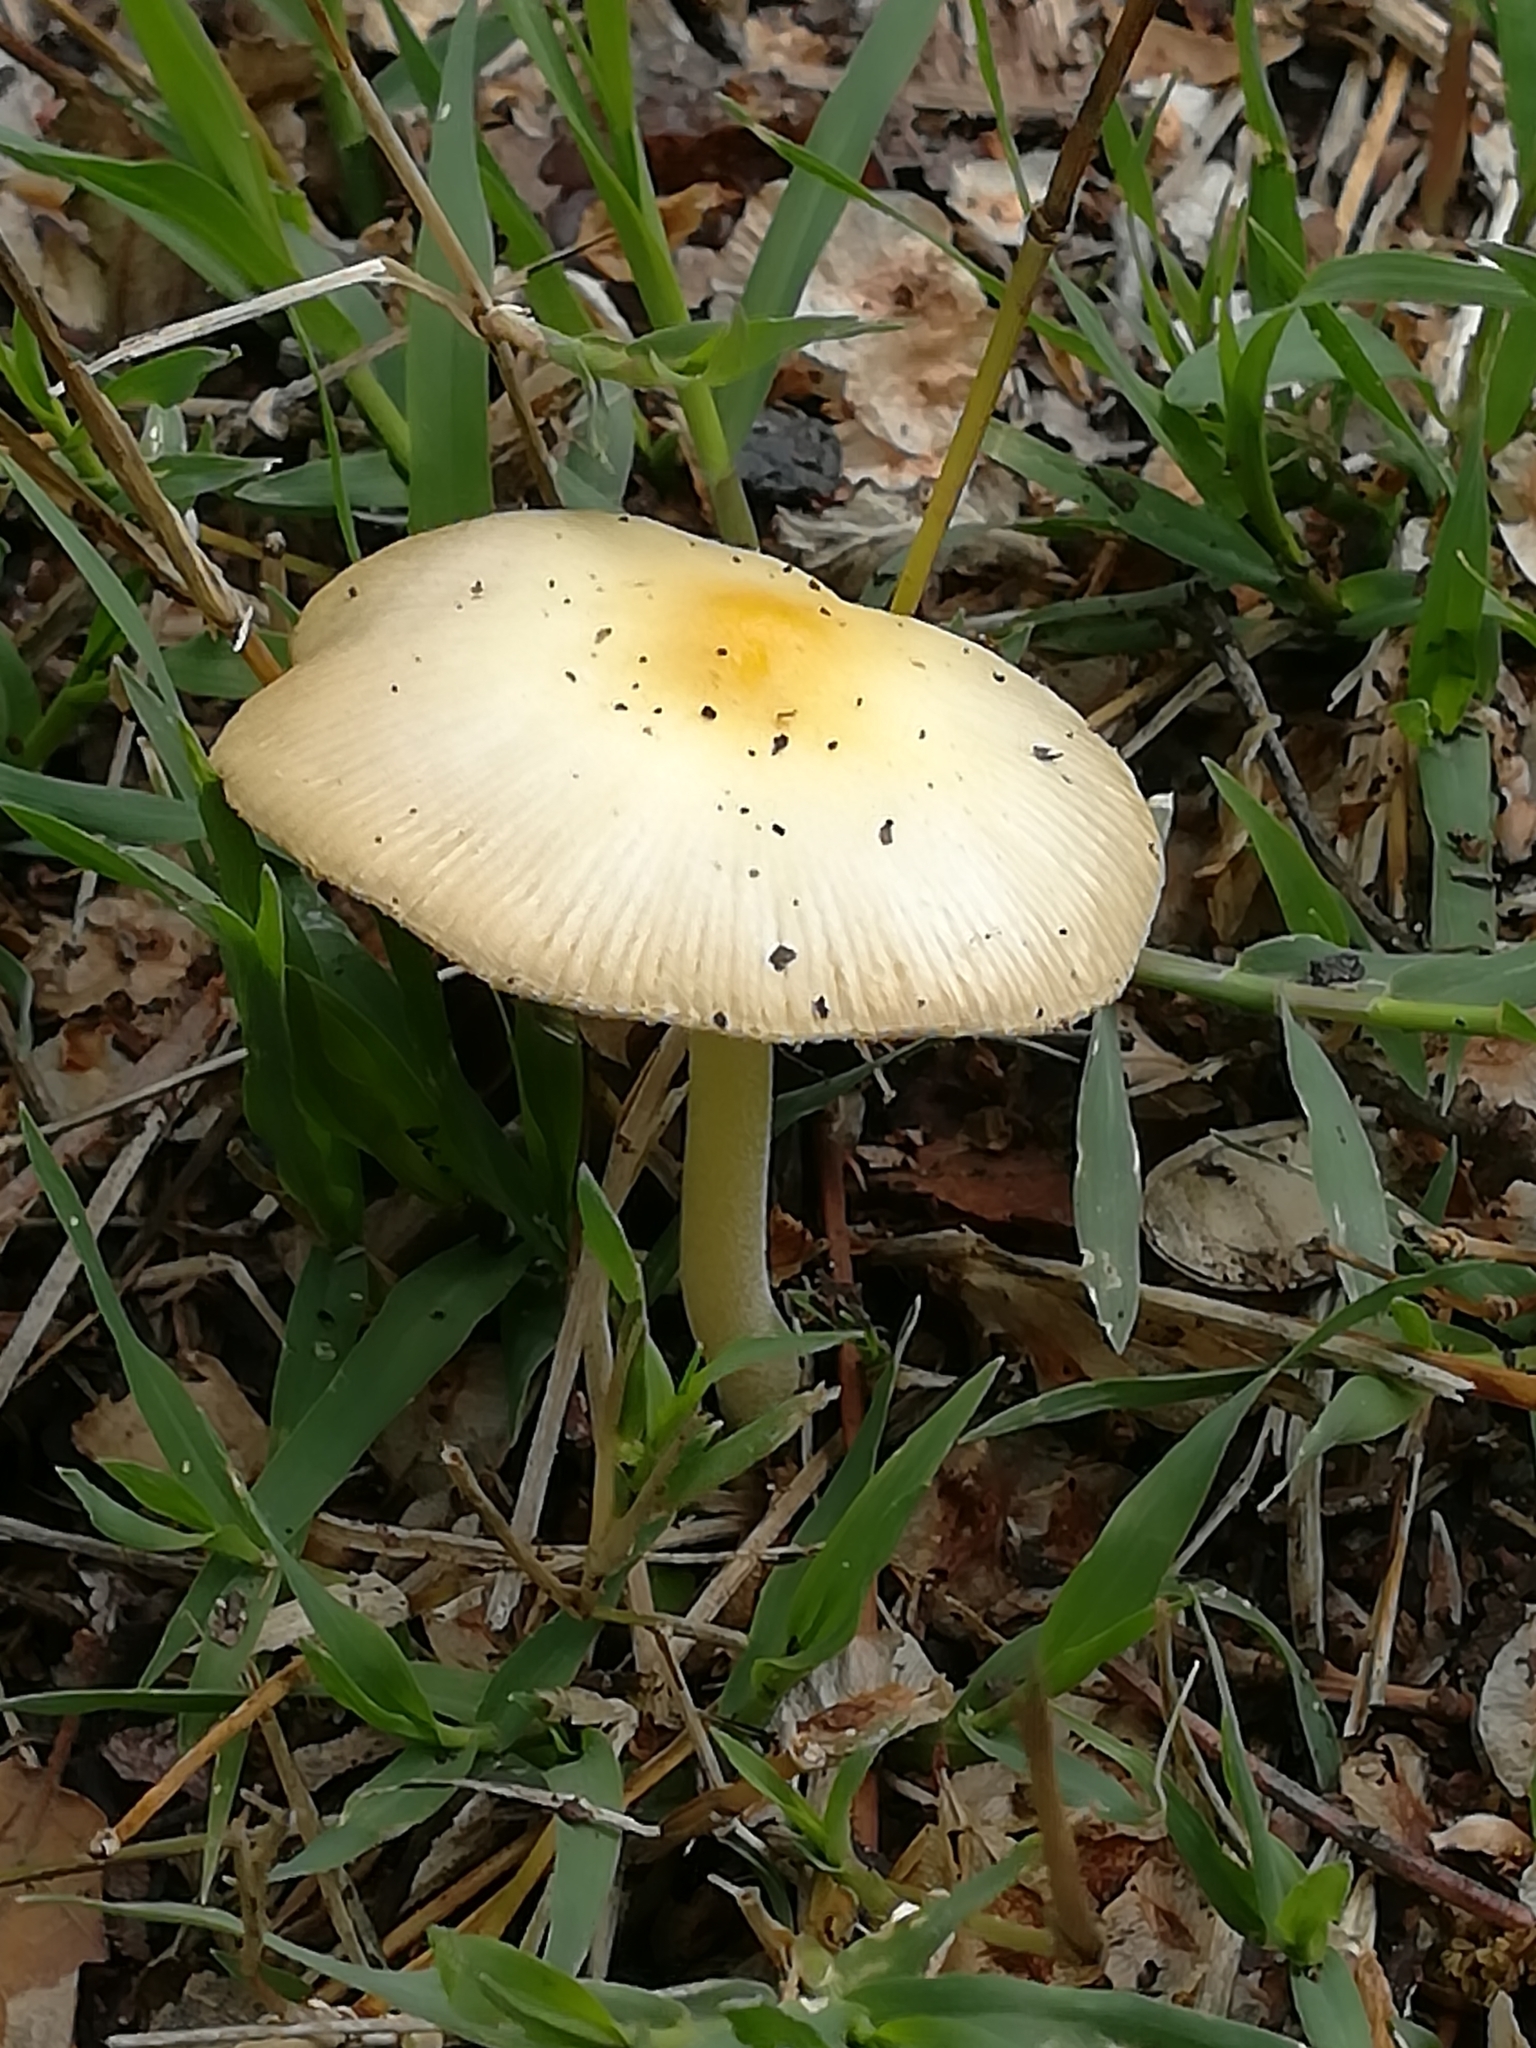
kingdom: Fungi
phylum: Basidiomycota
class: Agaricomycetes
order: Agaricales
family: Bolbitiaceae
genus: Bolbitius
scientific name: Bolbitius titubans
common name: Yellow fieldcap
